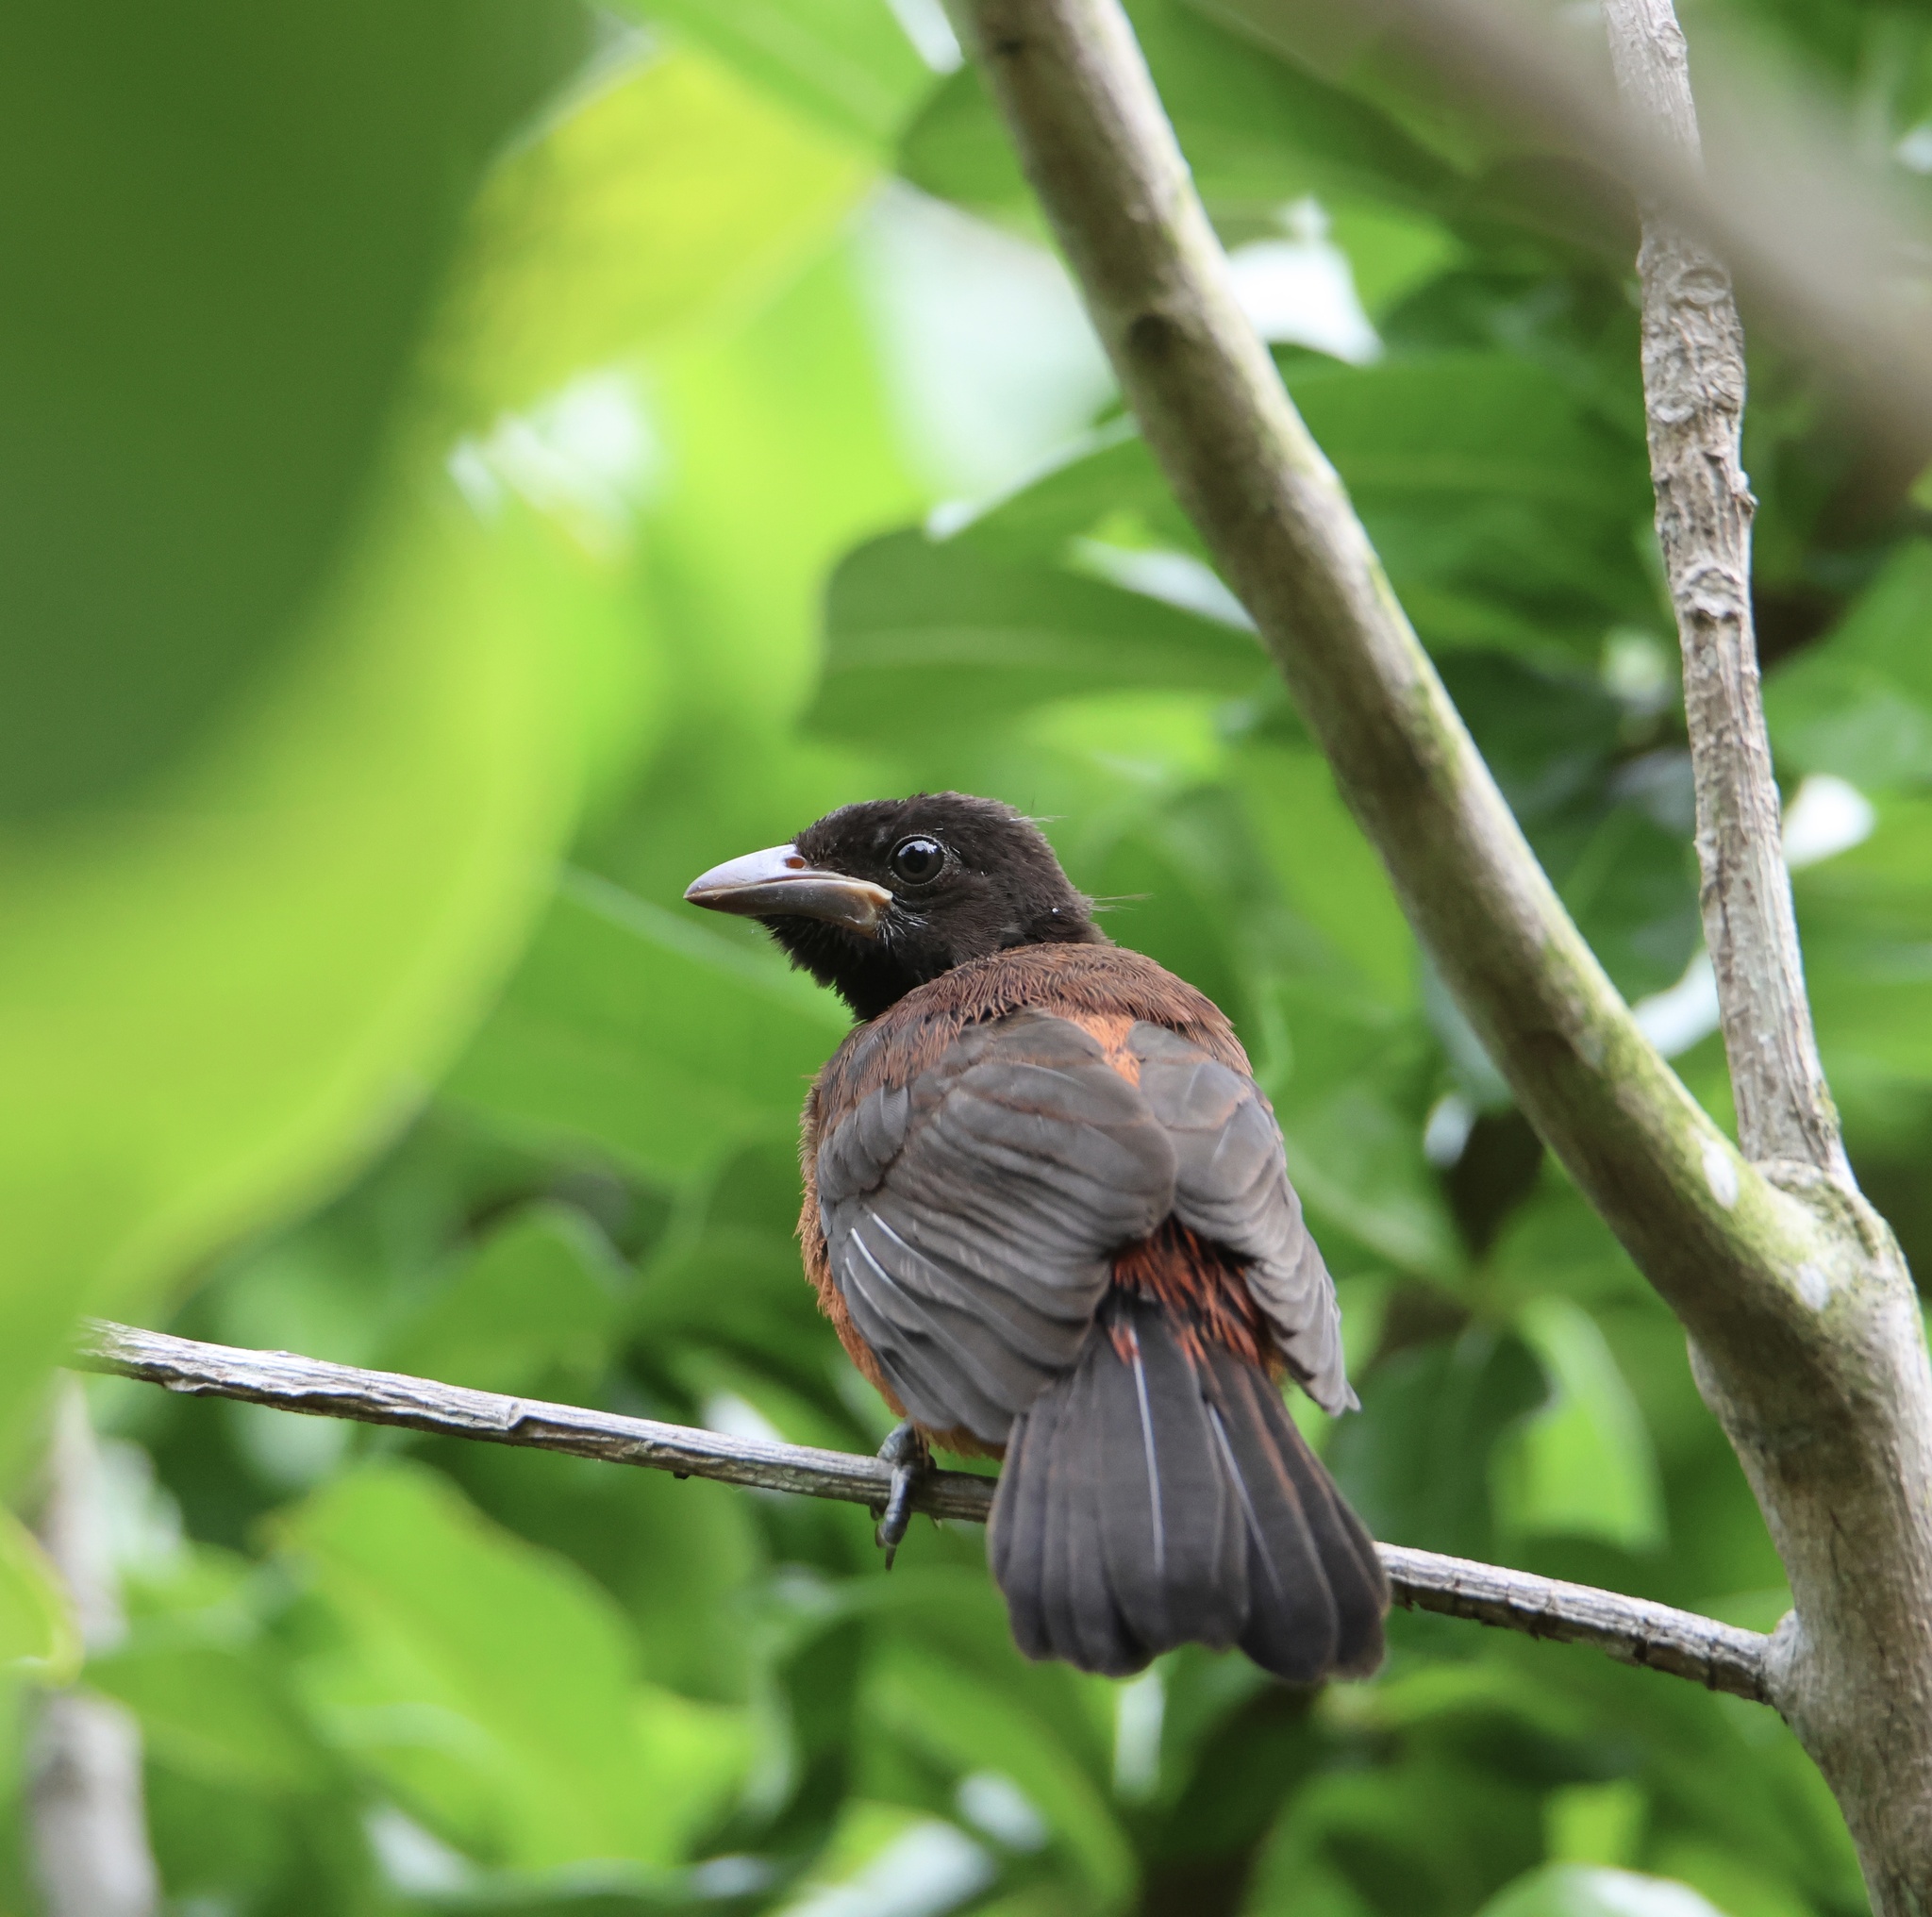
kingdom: Animalia
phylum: Chordata
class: Aves
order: Passeriformes
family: Thraupidae
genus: Ramphocelus
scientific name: Ramphocelus dimidiatus
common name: Crimson-backed tanager
